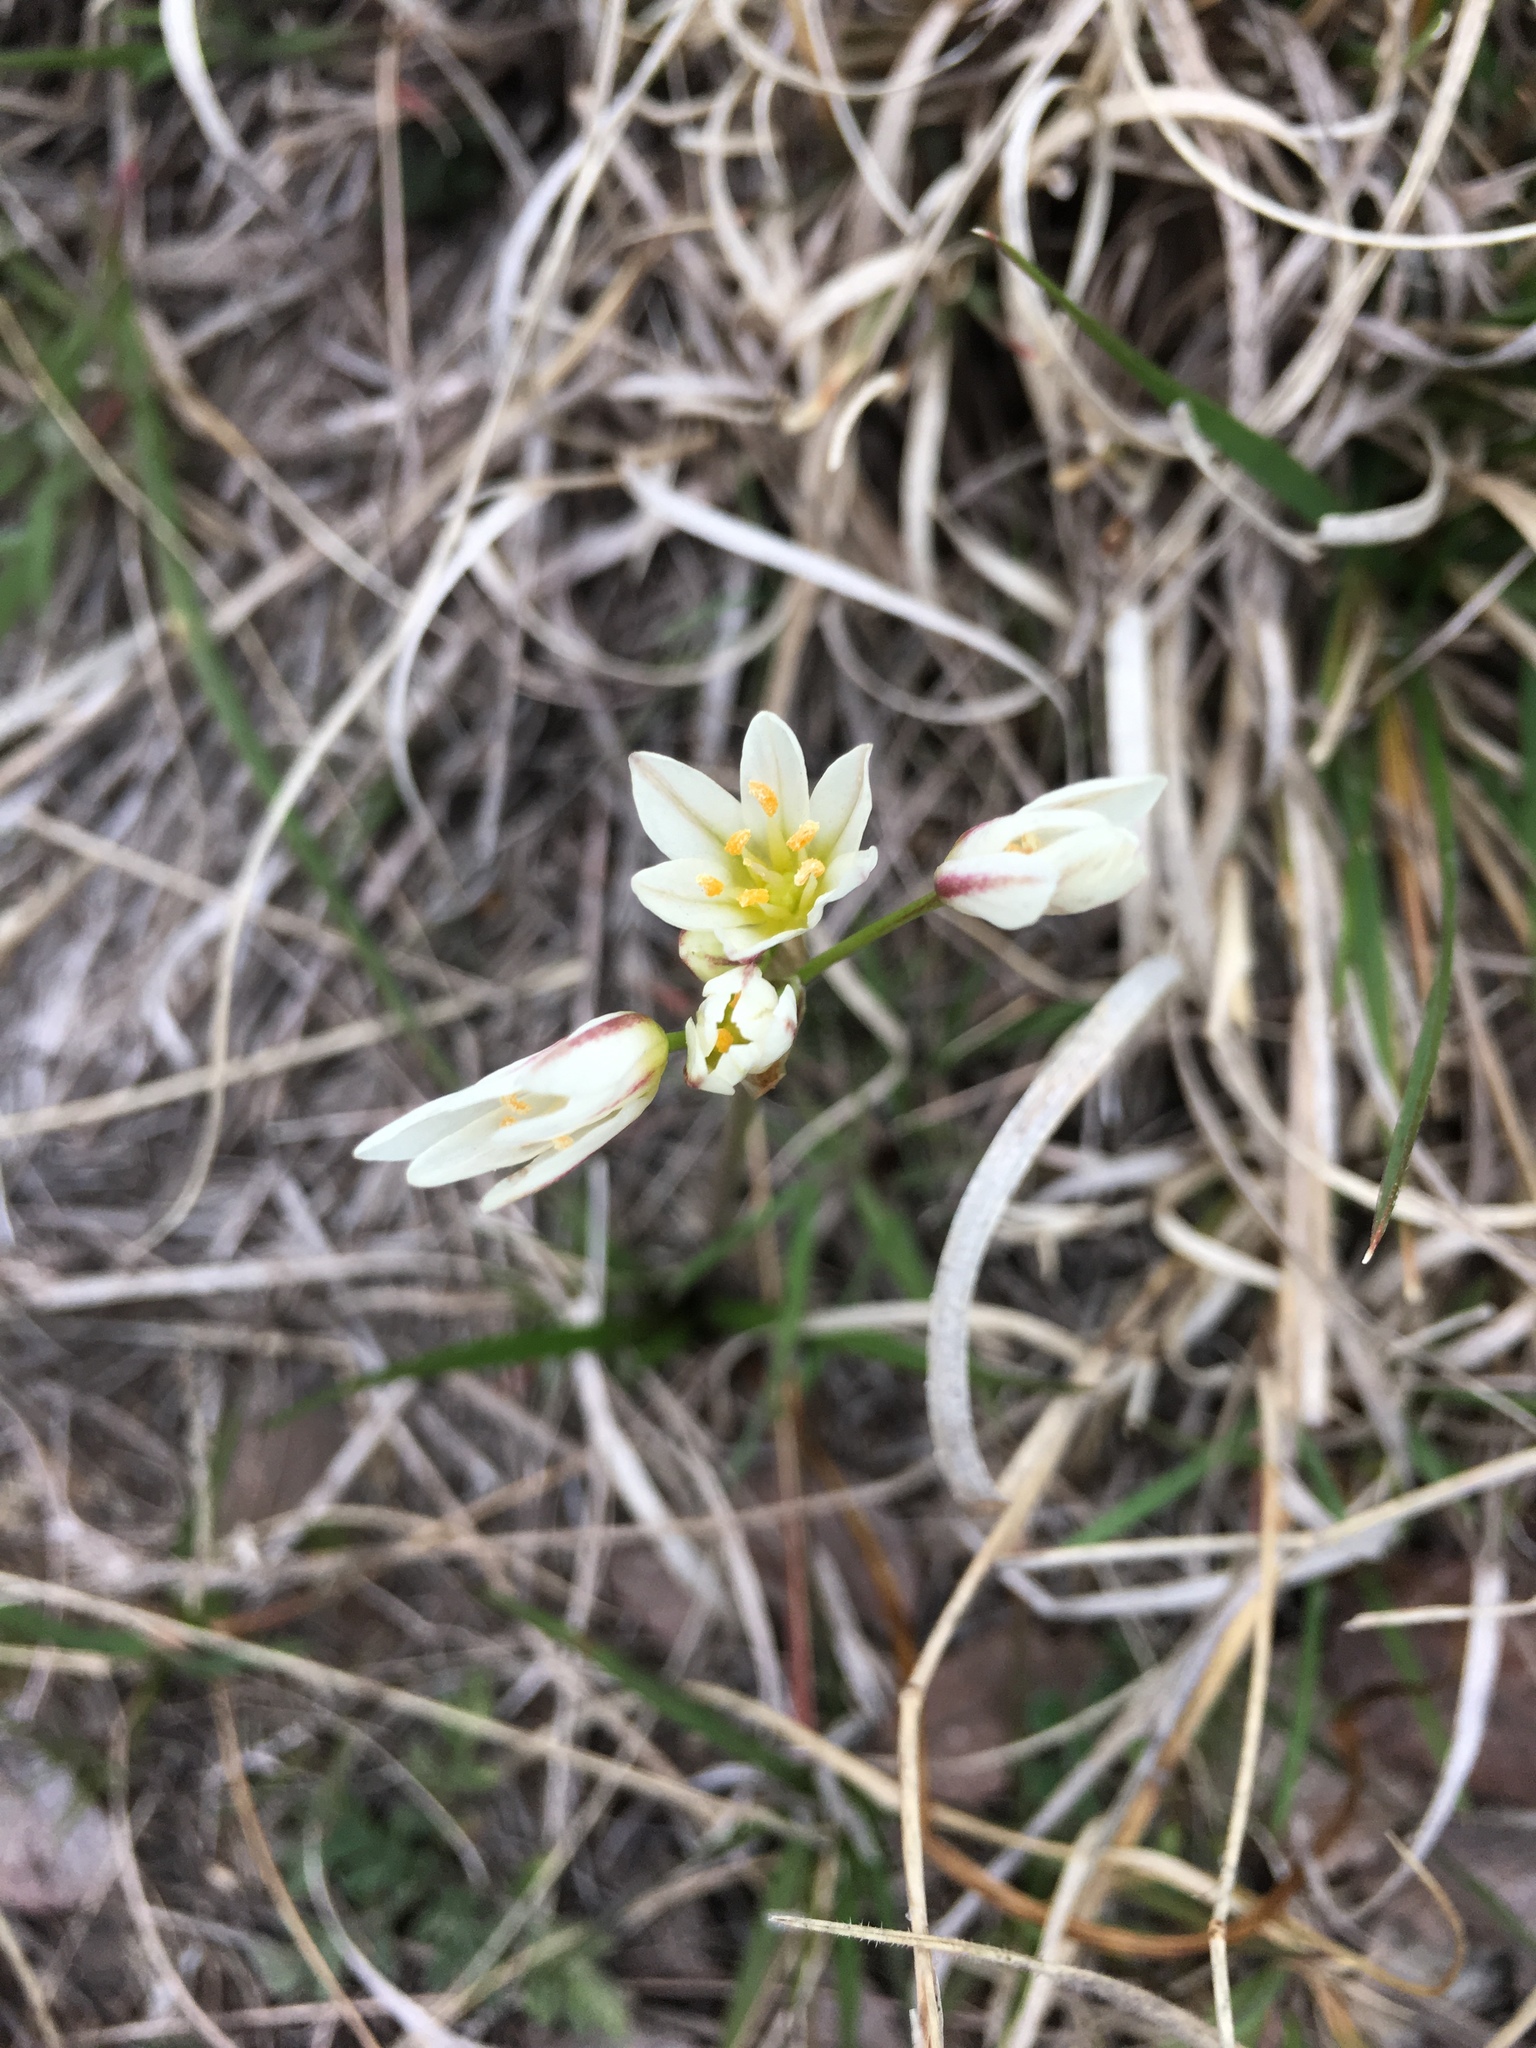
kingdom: Plantae
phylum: Tracheophyta
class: Liliopsida
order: Asparagales
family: Amaryllidaceae
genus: Nothoscordum
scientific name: Nothoscordum bivalve
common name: Crow-poison
